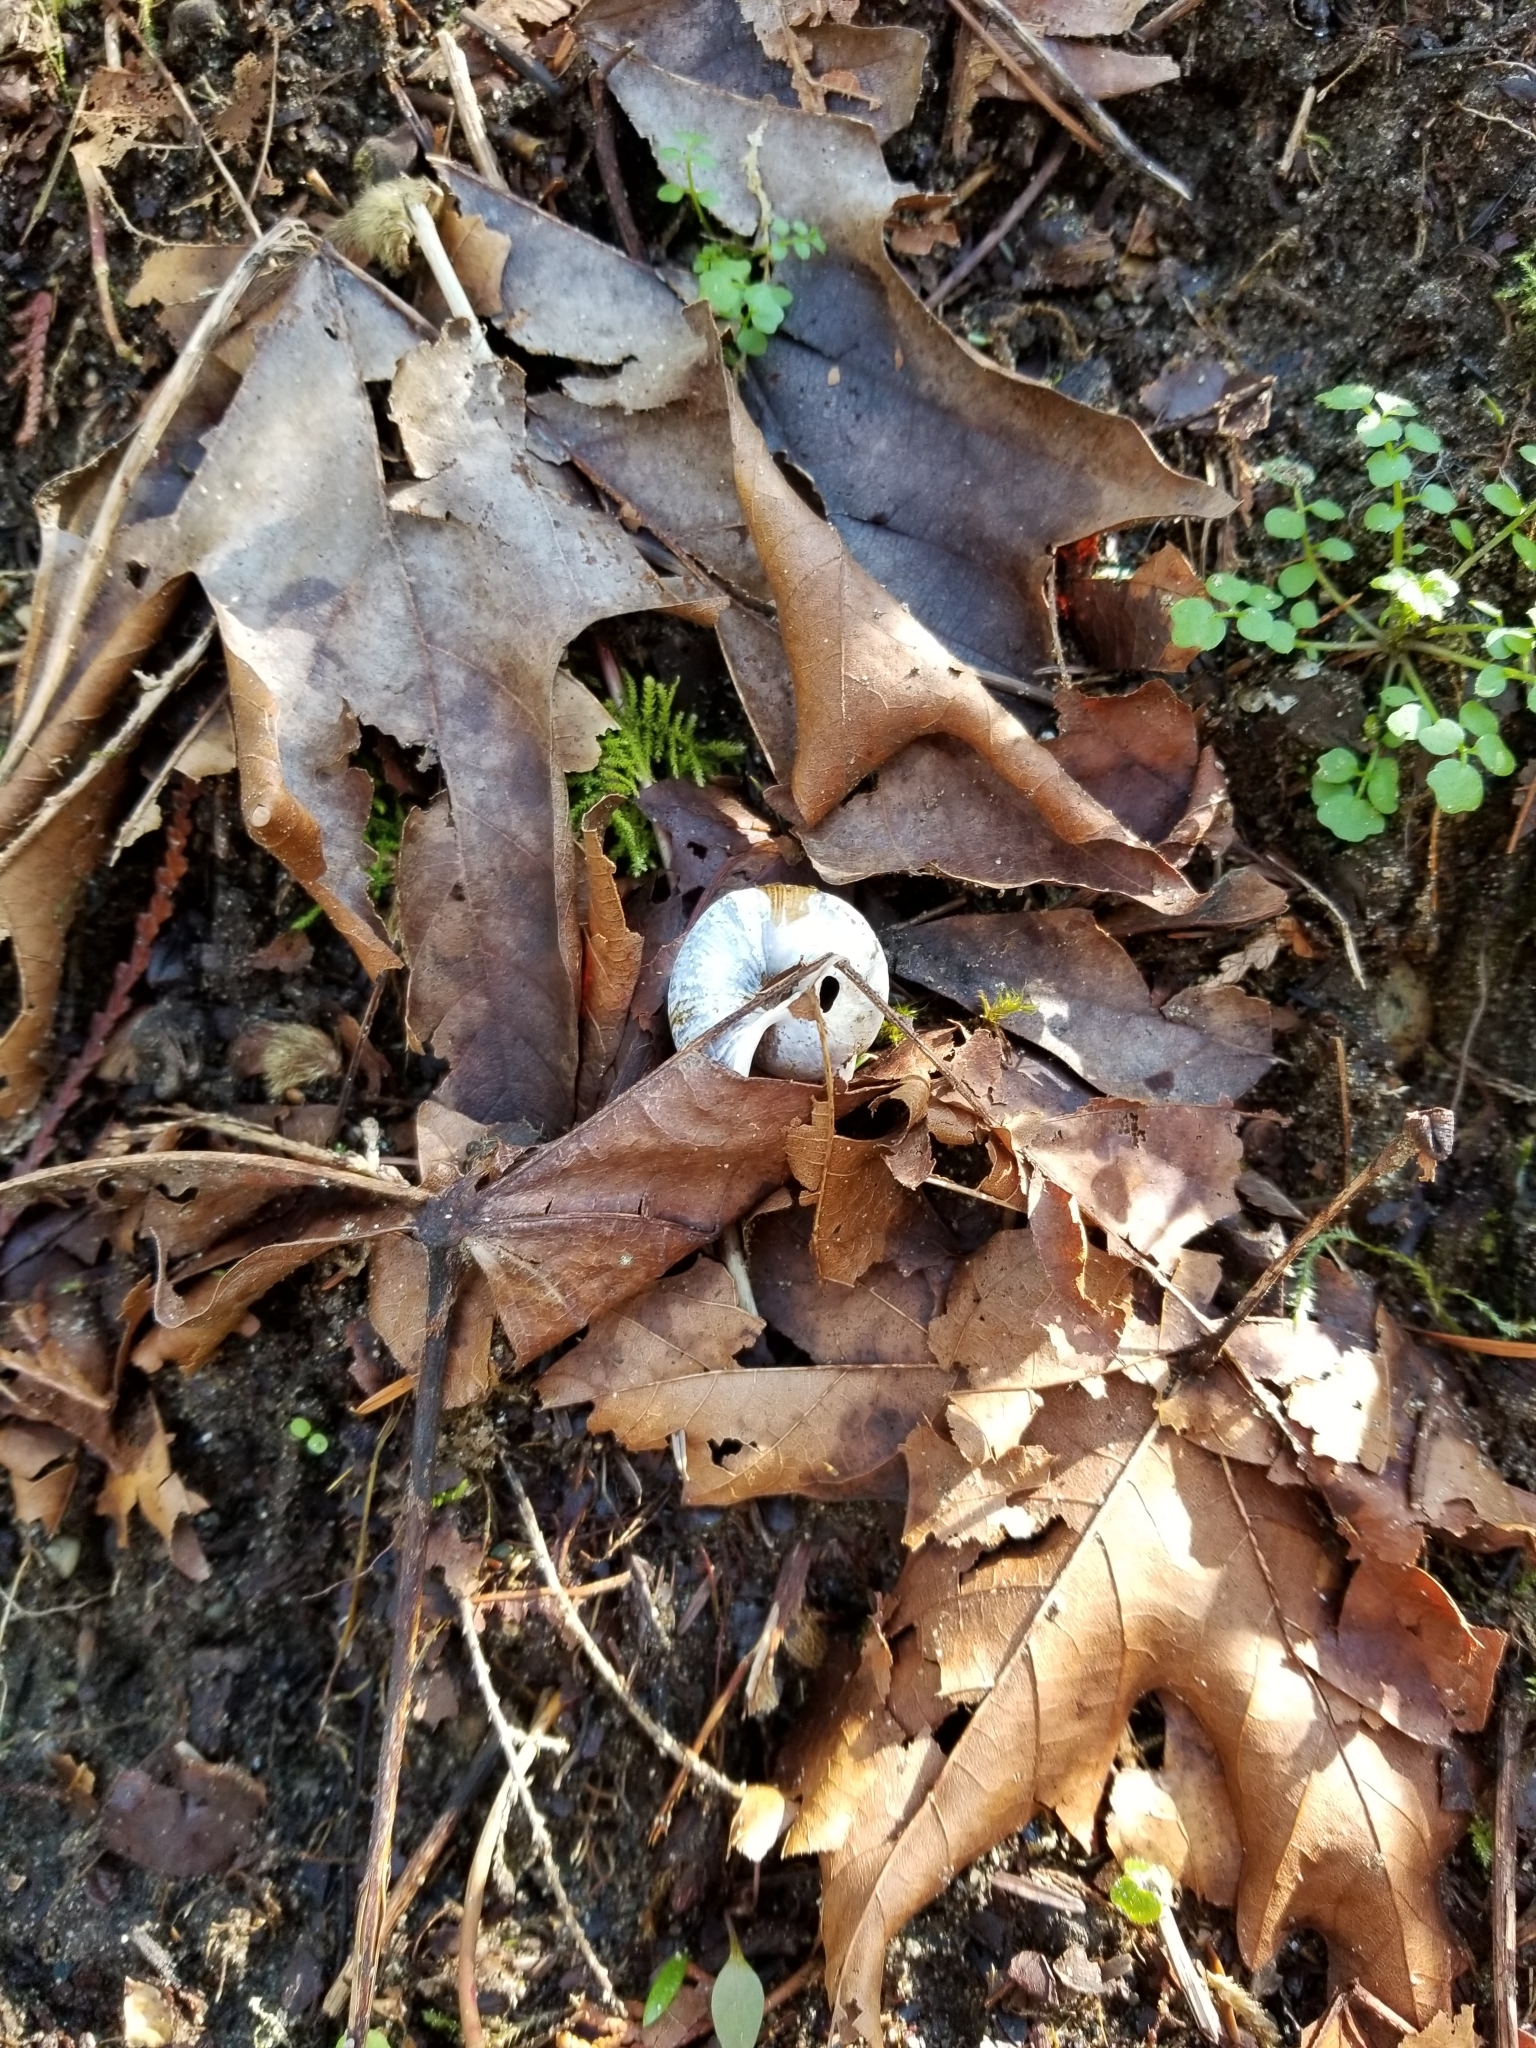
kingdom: Animalia
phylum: Mollusca
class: Gastropoda
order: Stylommatophora
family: Polygyridae
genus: Allogona
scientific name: Allogona townsendiana
